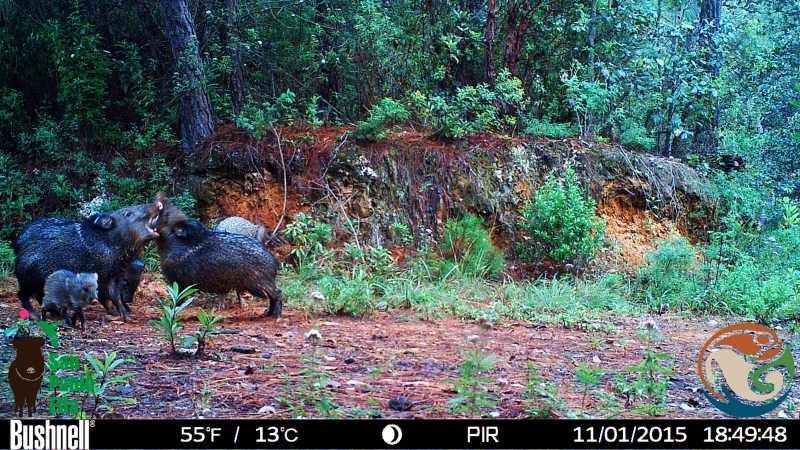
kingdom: Animalia
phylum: Chordata
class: Mammalia
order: Artiodactyla
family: Tayassuidae
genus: Pecari
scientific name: Pecari tajacu
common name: Collared peccary
